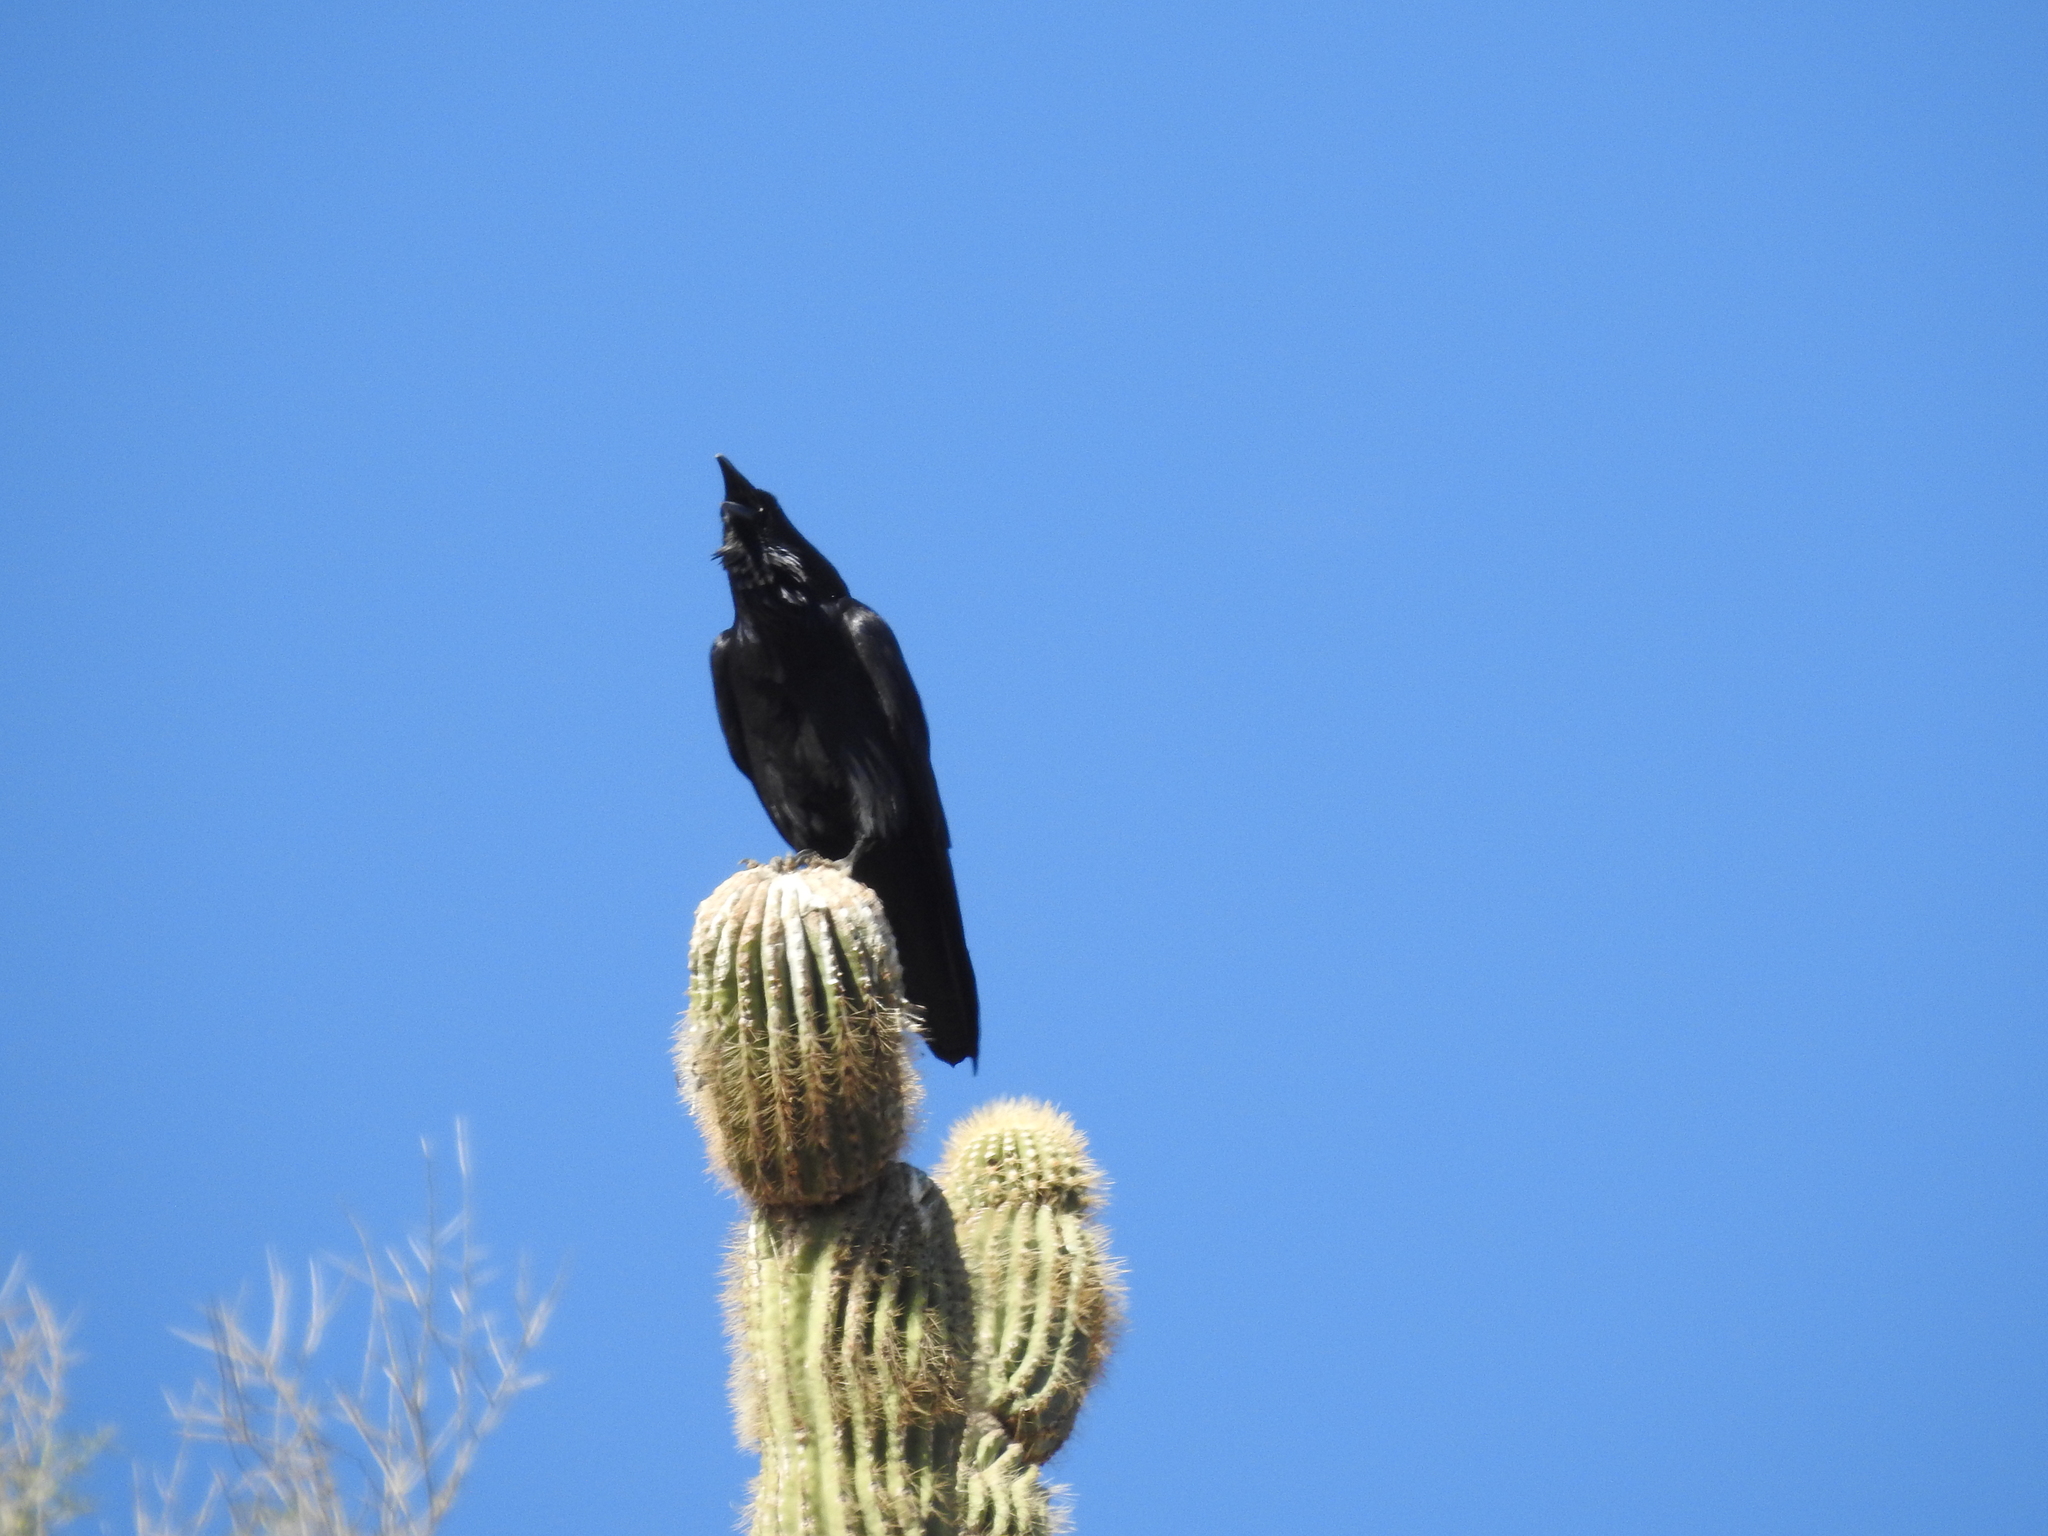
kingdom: Animalia
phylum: Chordata
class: Aves
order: Passeriformes
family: Corvidae
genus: Corvus
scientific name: Corvus corax
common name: Common raven
